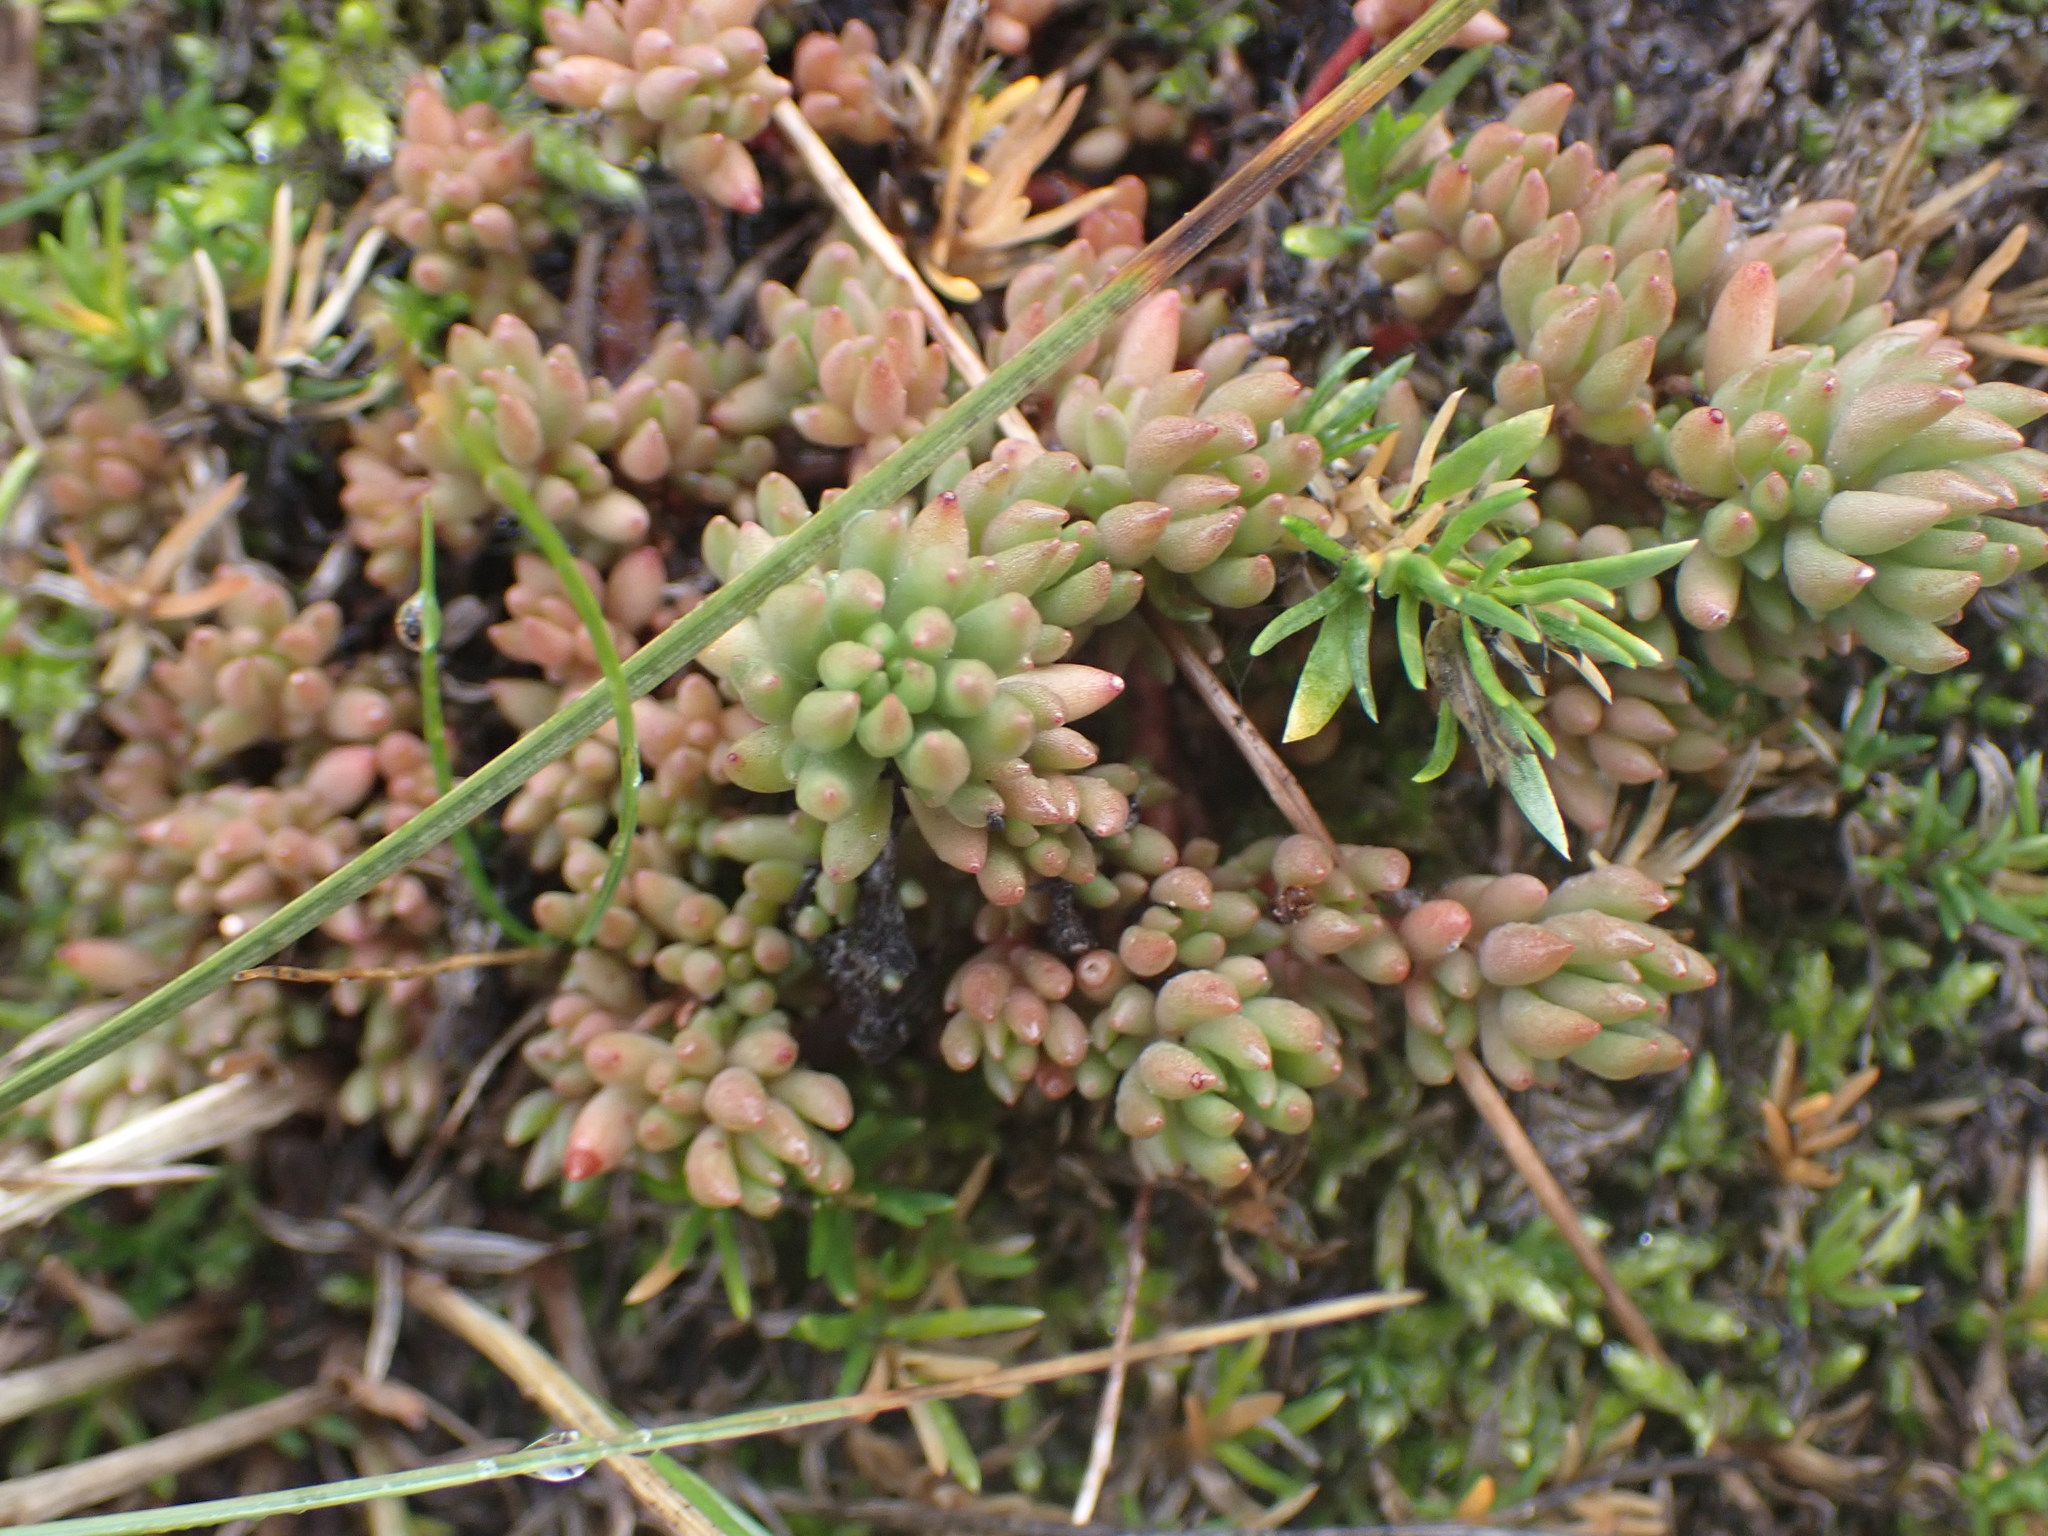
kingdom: Plantae
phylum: Tracheophyta
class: Magnoliopsida
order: Saxifragales
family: Crassulaceae
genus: Sedum
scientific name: Sedum lanceolatum
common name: Common stonecrop
